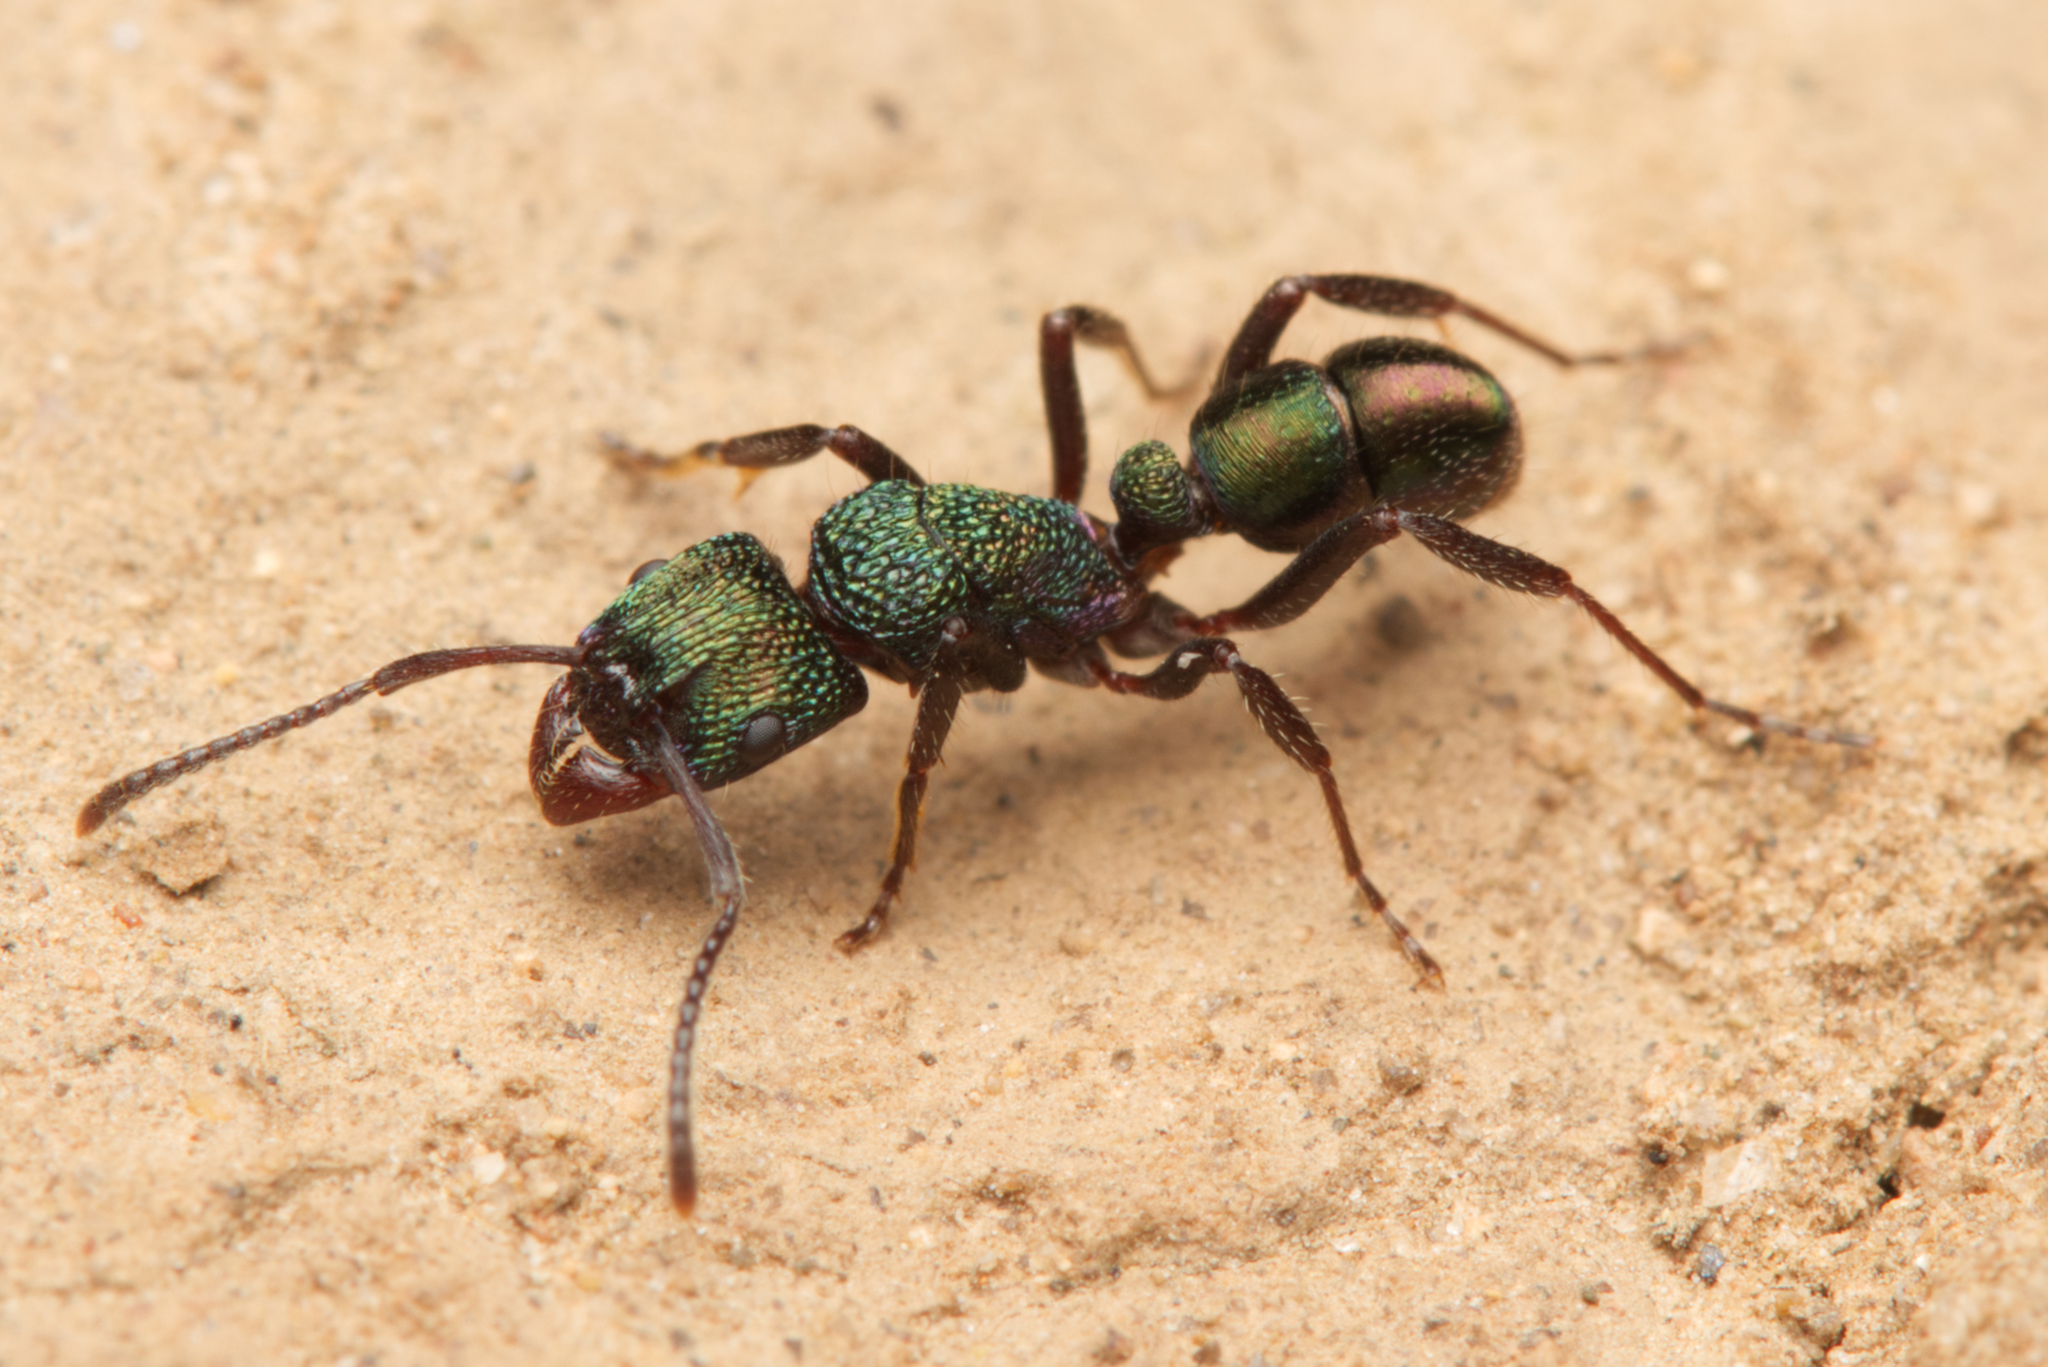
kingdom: Animalia
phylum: Arthropoda
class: Insecta
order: Hymenoptera
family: Formicidae
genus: Rhytidoponera
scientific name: Rhytidoponera metallica
